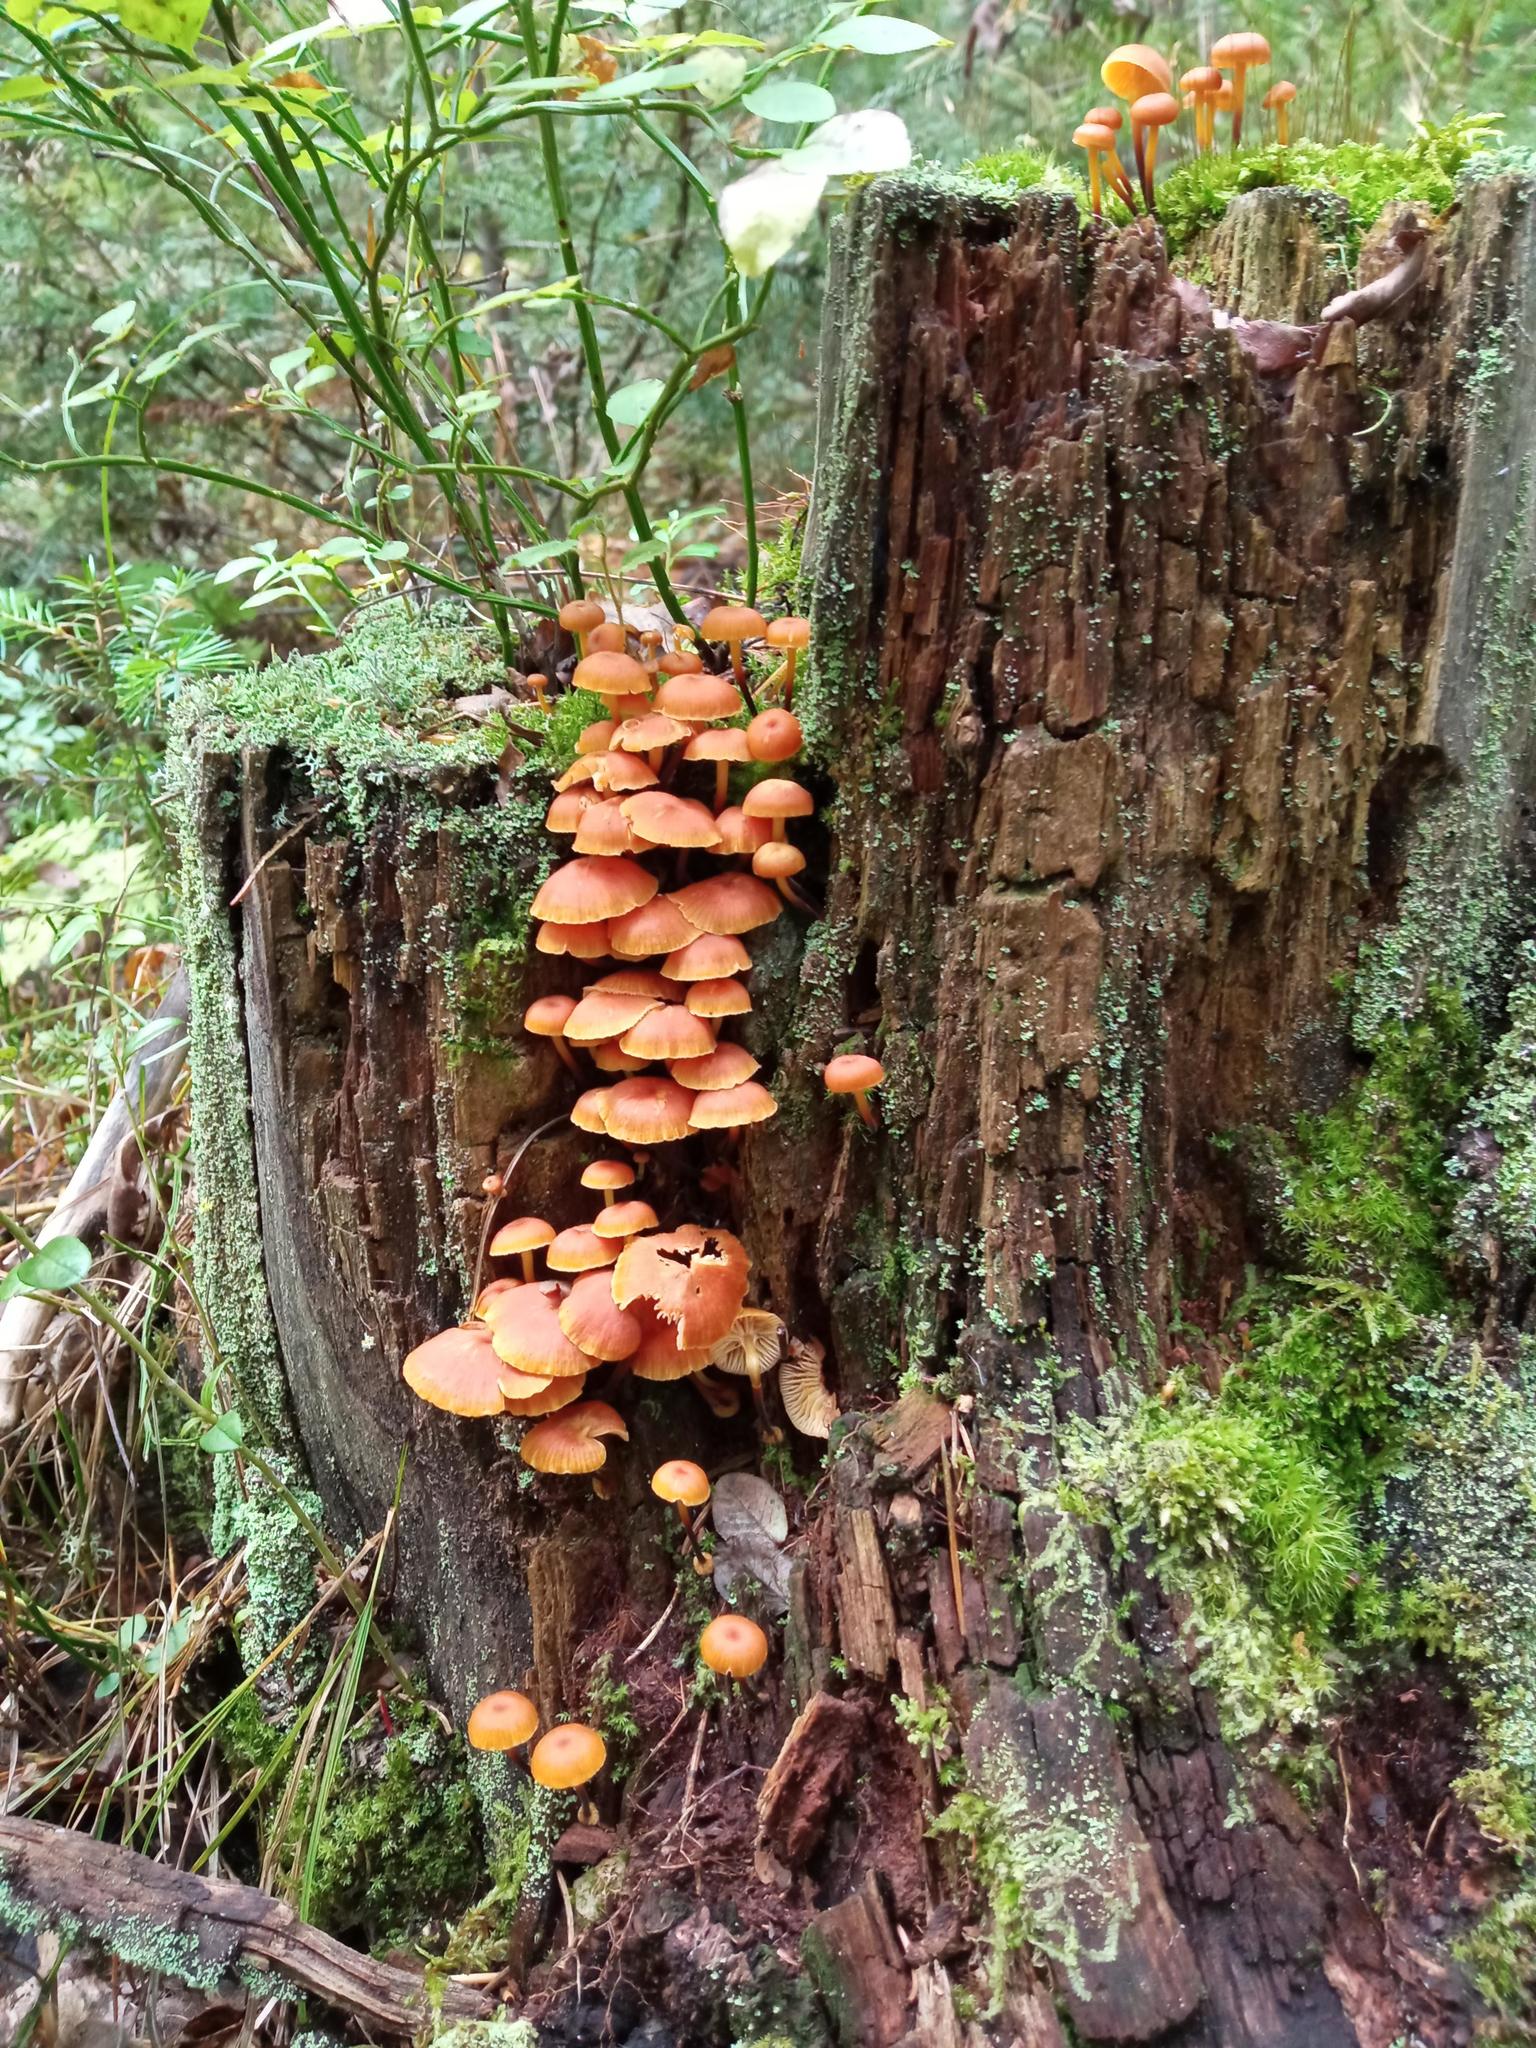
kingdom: Fungi
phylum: Basidiomycota
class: Agaricomycetes
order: Agaricales
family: Mycenaceae
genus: Xeromphalina
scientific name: Xeromphalina campanella
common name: Pinewood gingertail
